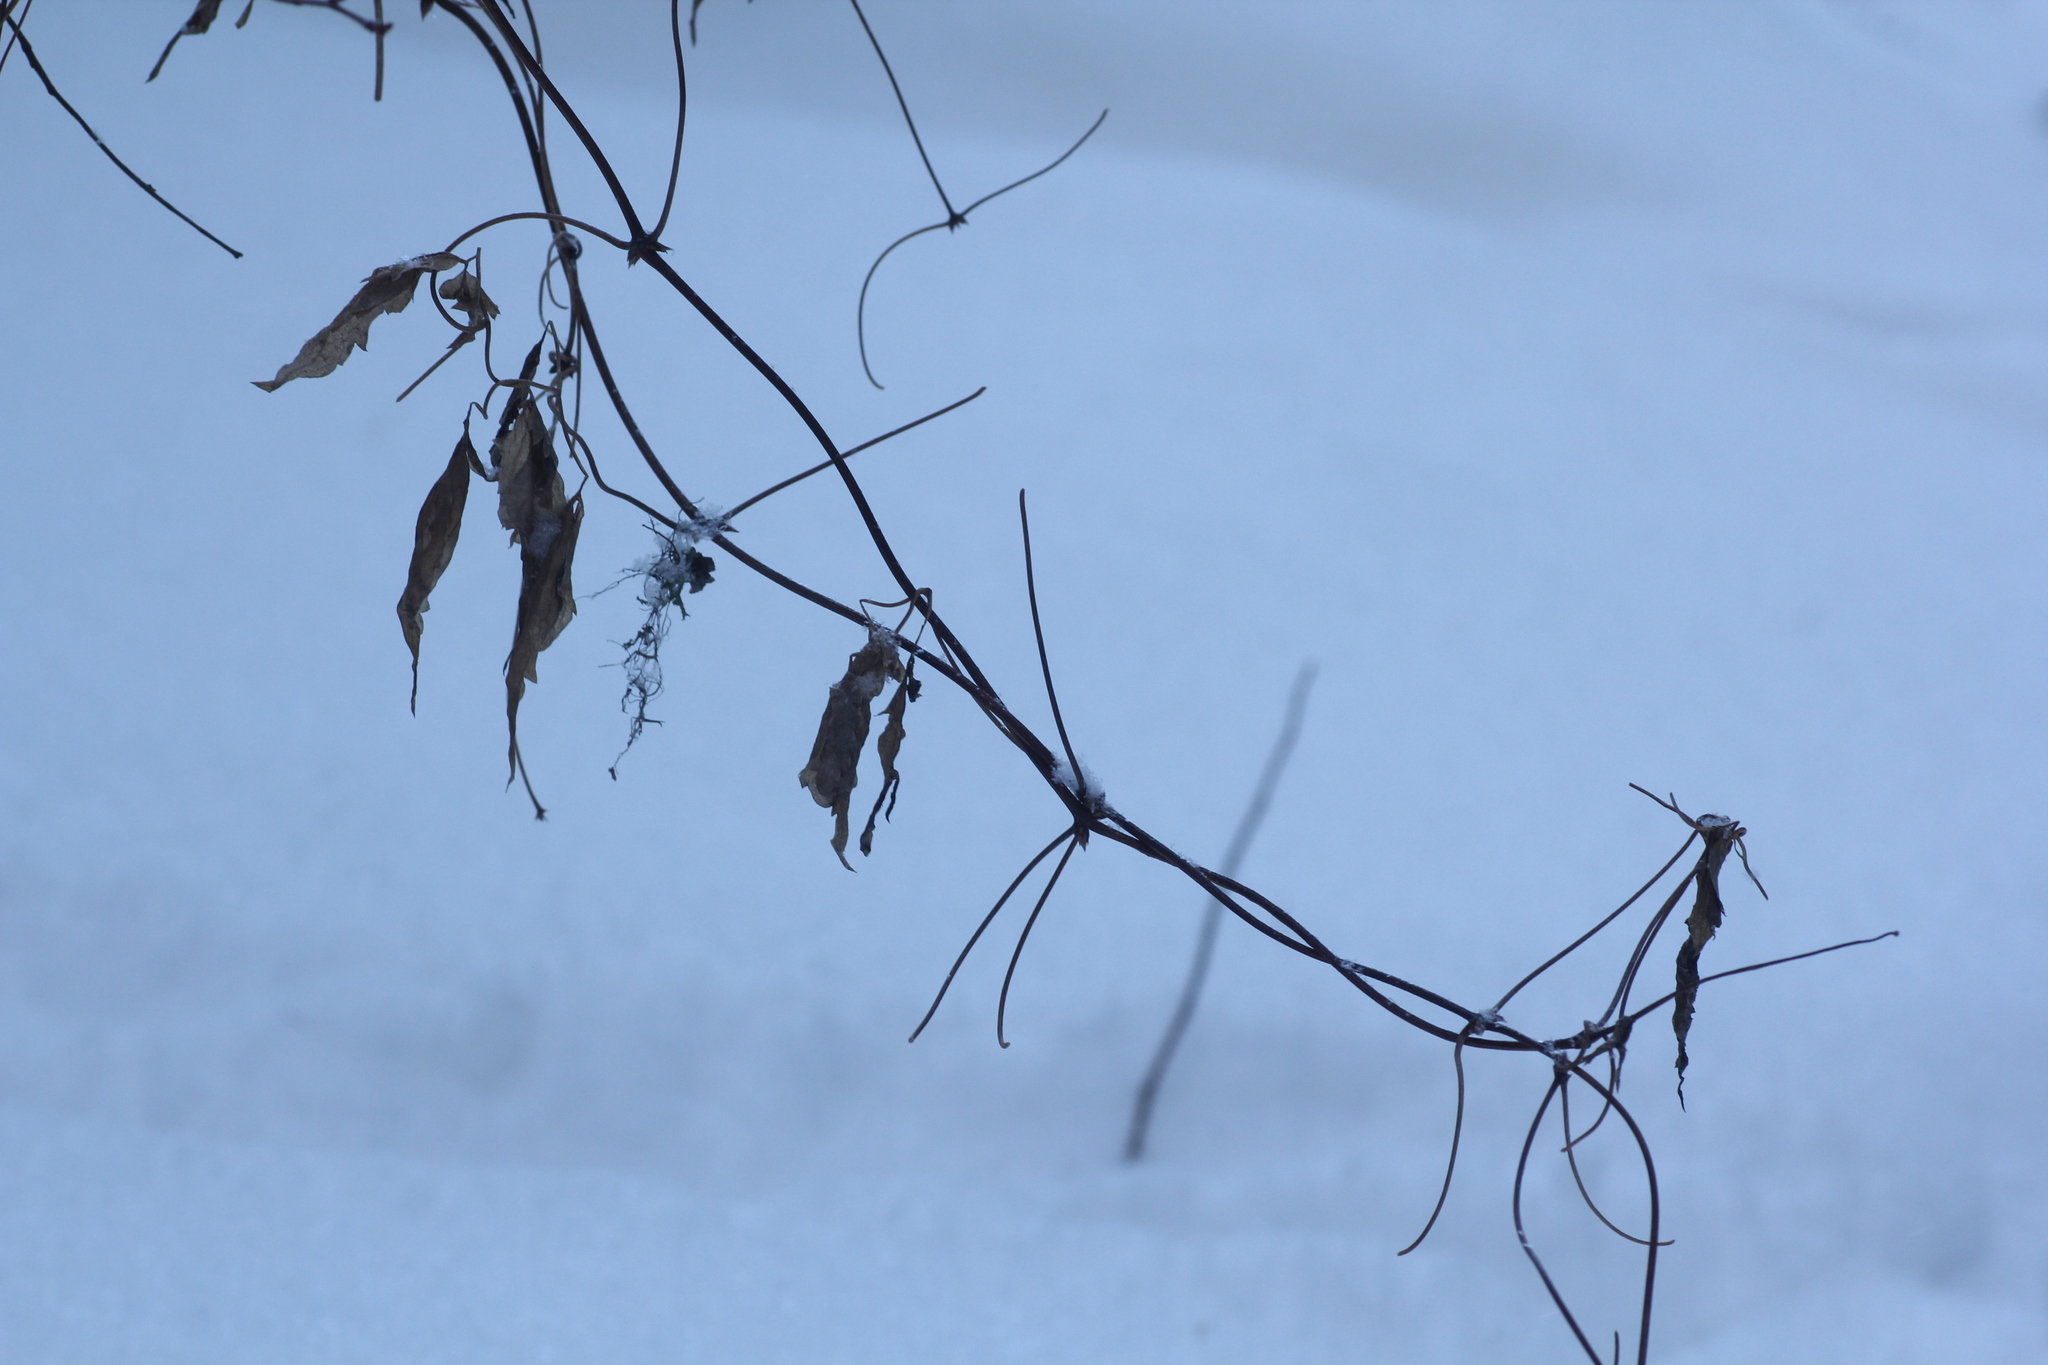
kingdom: Plantae
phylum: Tracheophyta
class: Magnoliopsida
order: Ranunculales
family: Ranunculaceae
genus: Clematis
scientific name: Clematis sibirica
